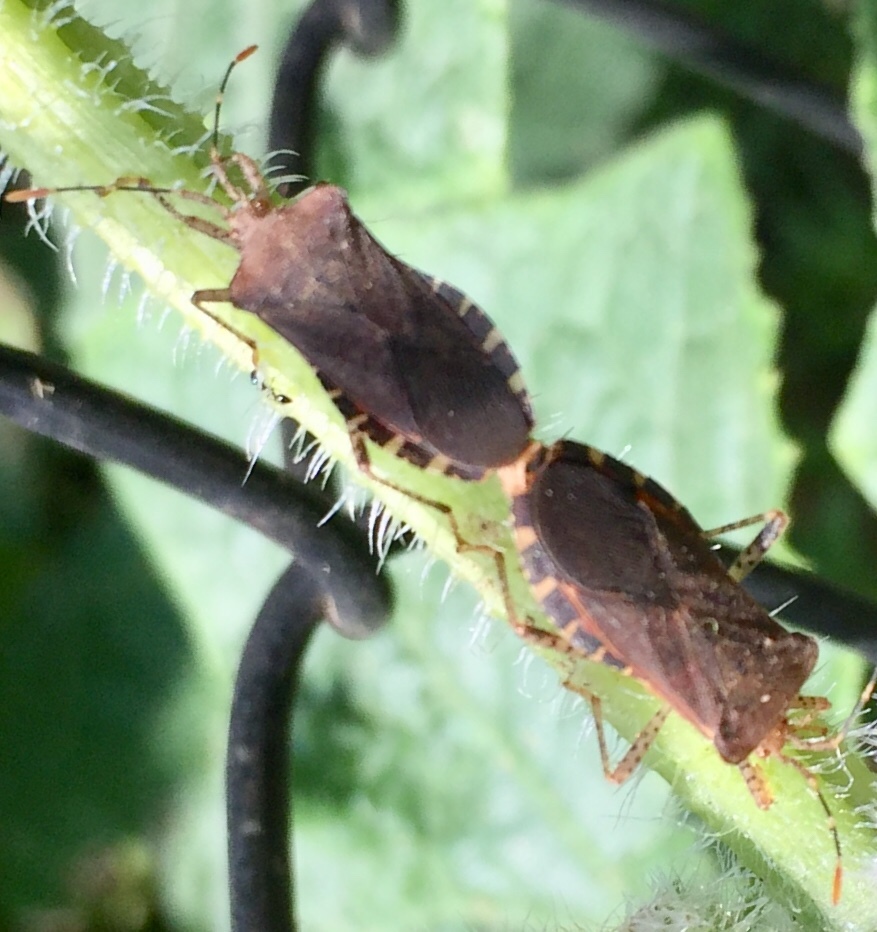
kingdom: Animalia
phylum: Arthropoda
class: Insecta
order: Hemiptera
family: Coreidae
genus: Anasa
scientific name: Anasa armigera
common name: Horned squash bug
